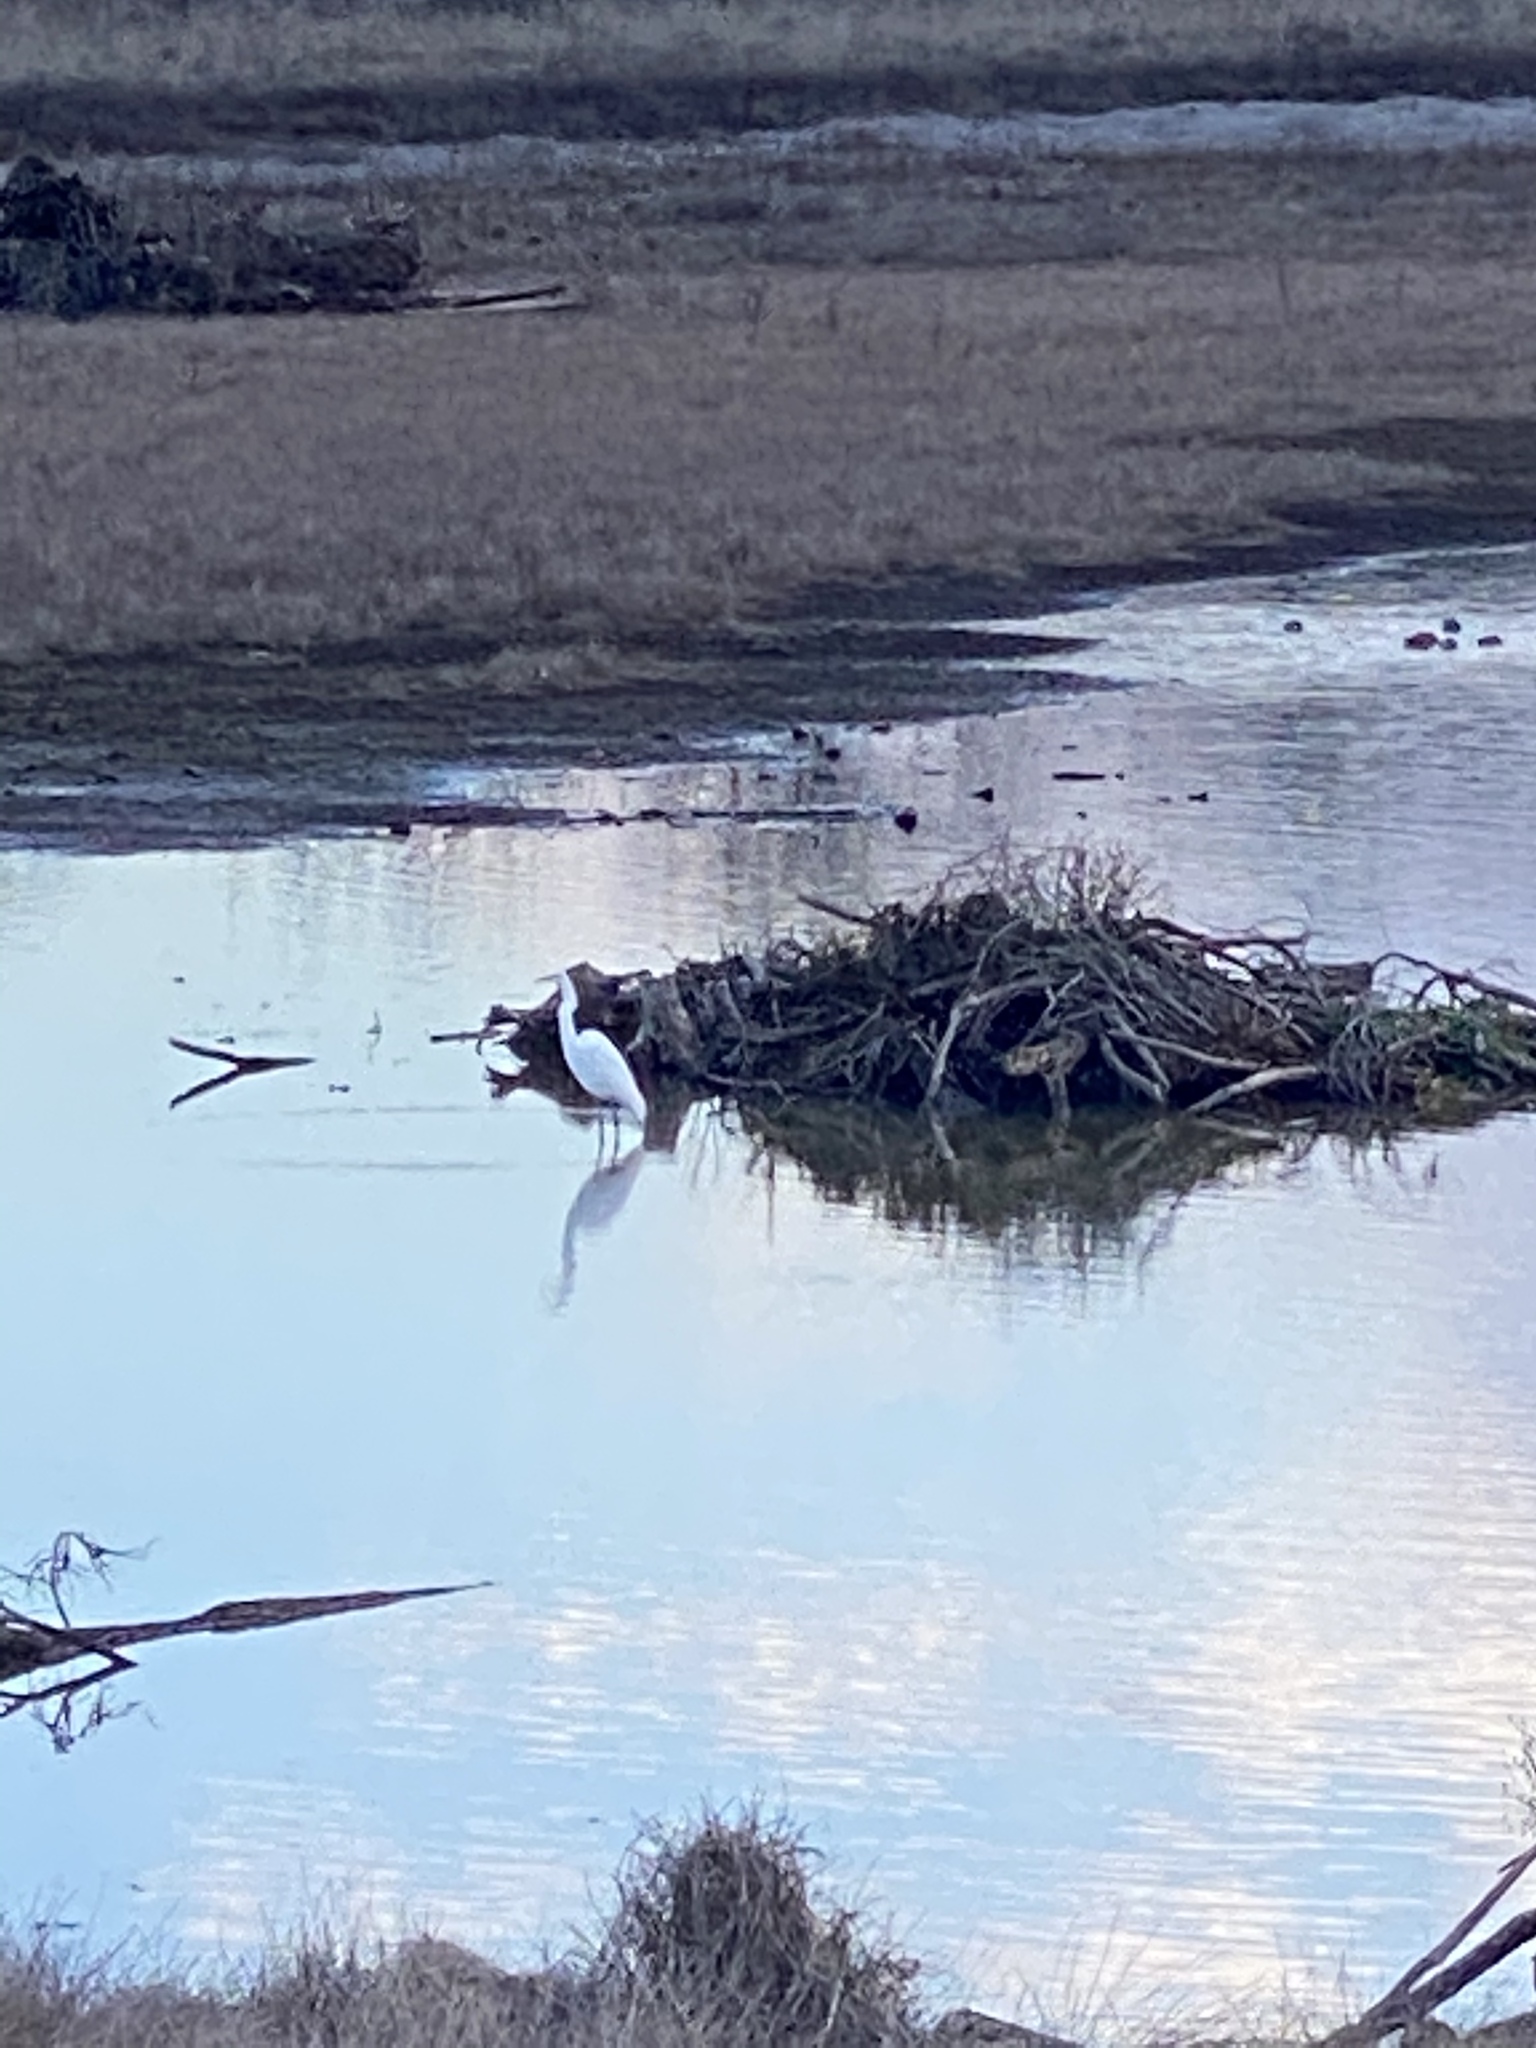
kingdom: Animalia
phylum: Chordata
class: Aves
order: Pelecaniformes
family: Ardeidae
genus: Ardea
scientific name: Ardea alba
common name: Great egret
